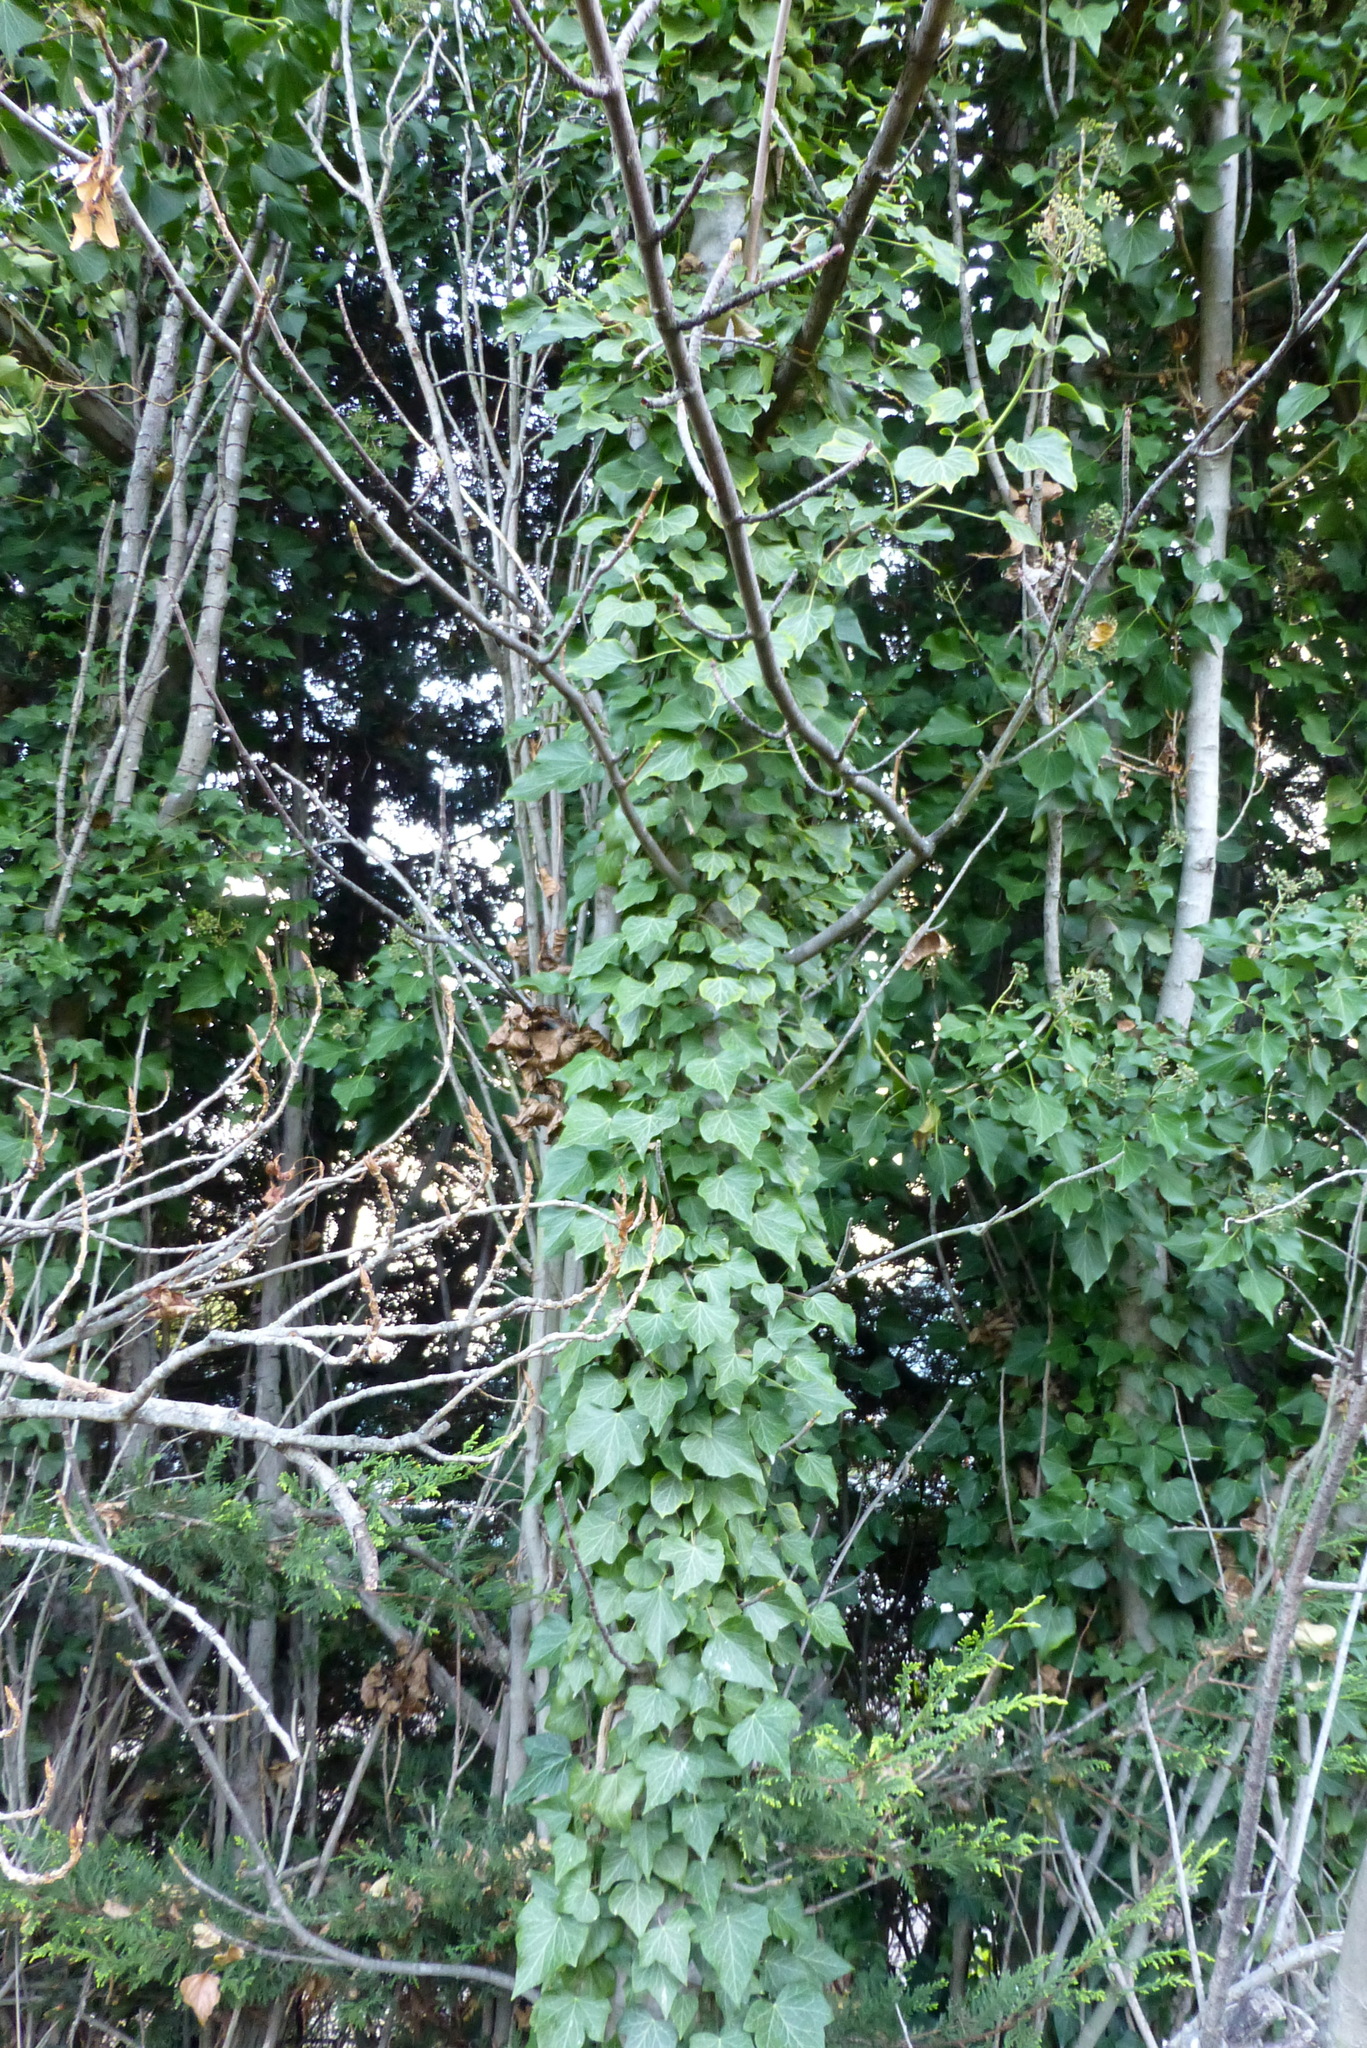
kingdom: Plantae
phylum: Tracheophyta
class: Magnoliopsida
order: Apiales
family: Araliaceae
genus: Hedera
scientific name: Hedera helix
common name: Ivy
